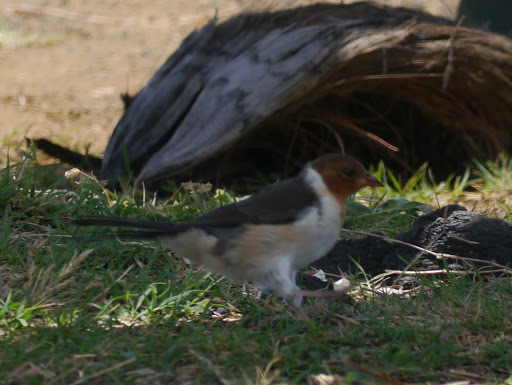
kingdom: Animalia
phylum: Chordata
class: Aves
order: Passeriformes
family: Thraupidae
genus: Paroaria
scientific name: Paroaria capitata
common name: Yellow-billed cardinal
